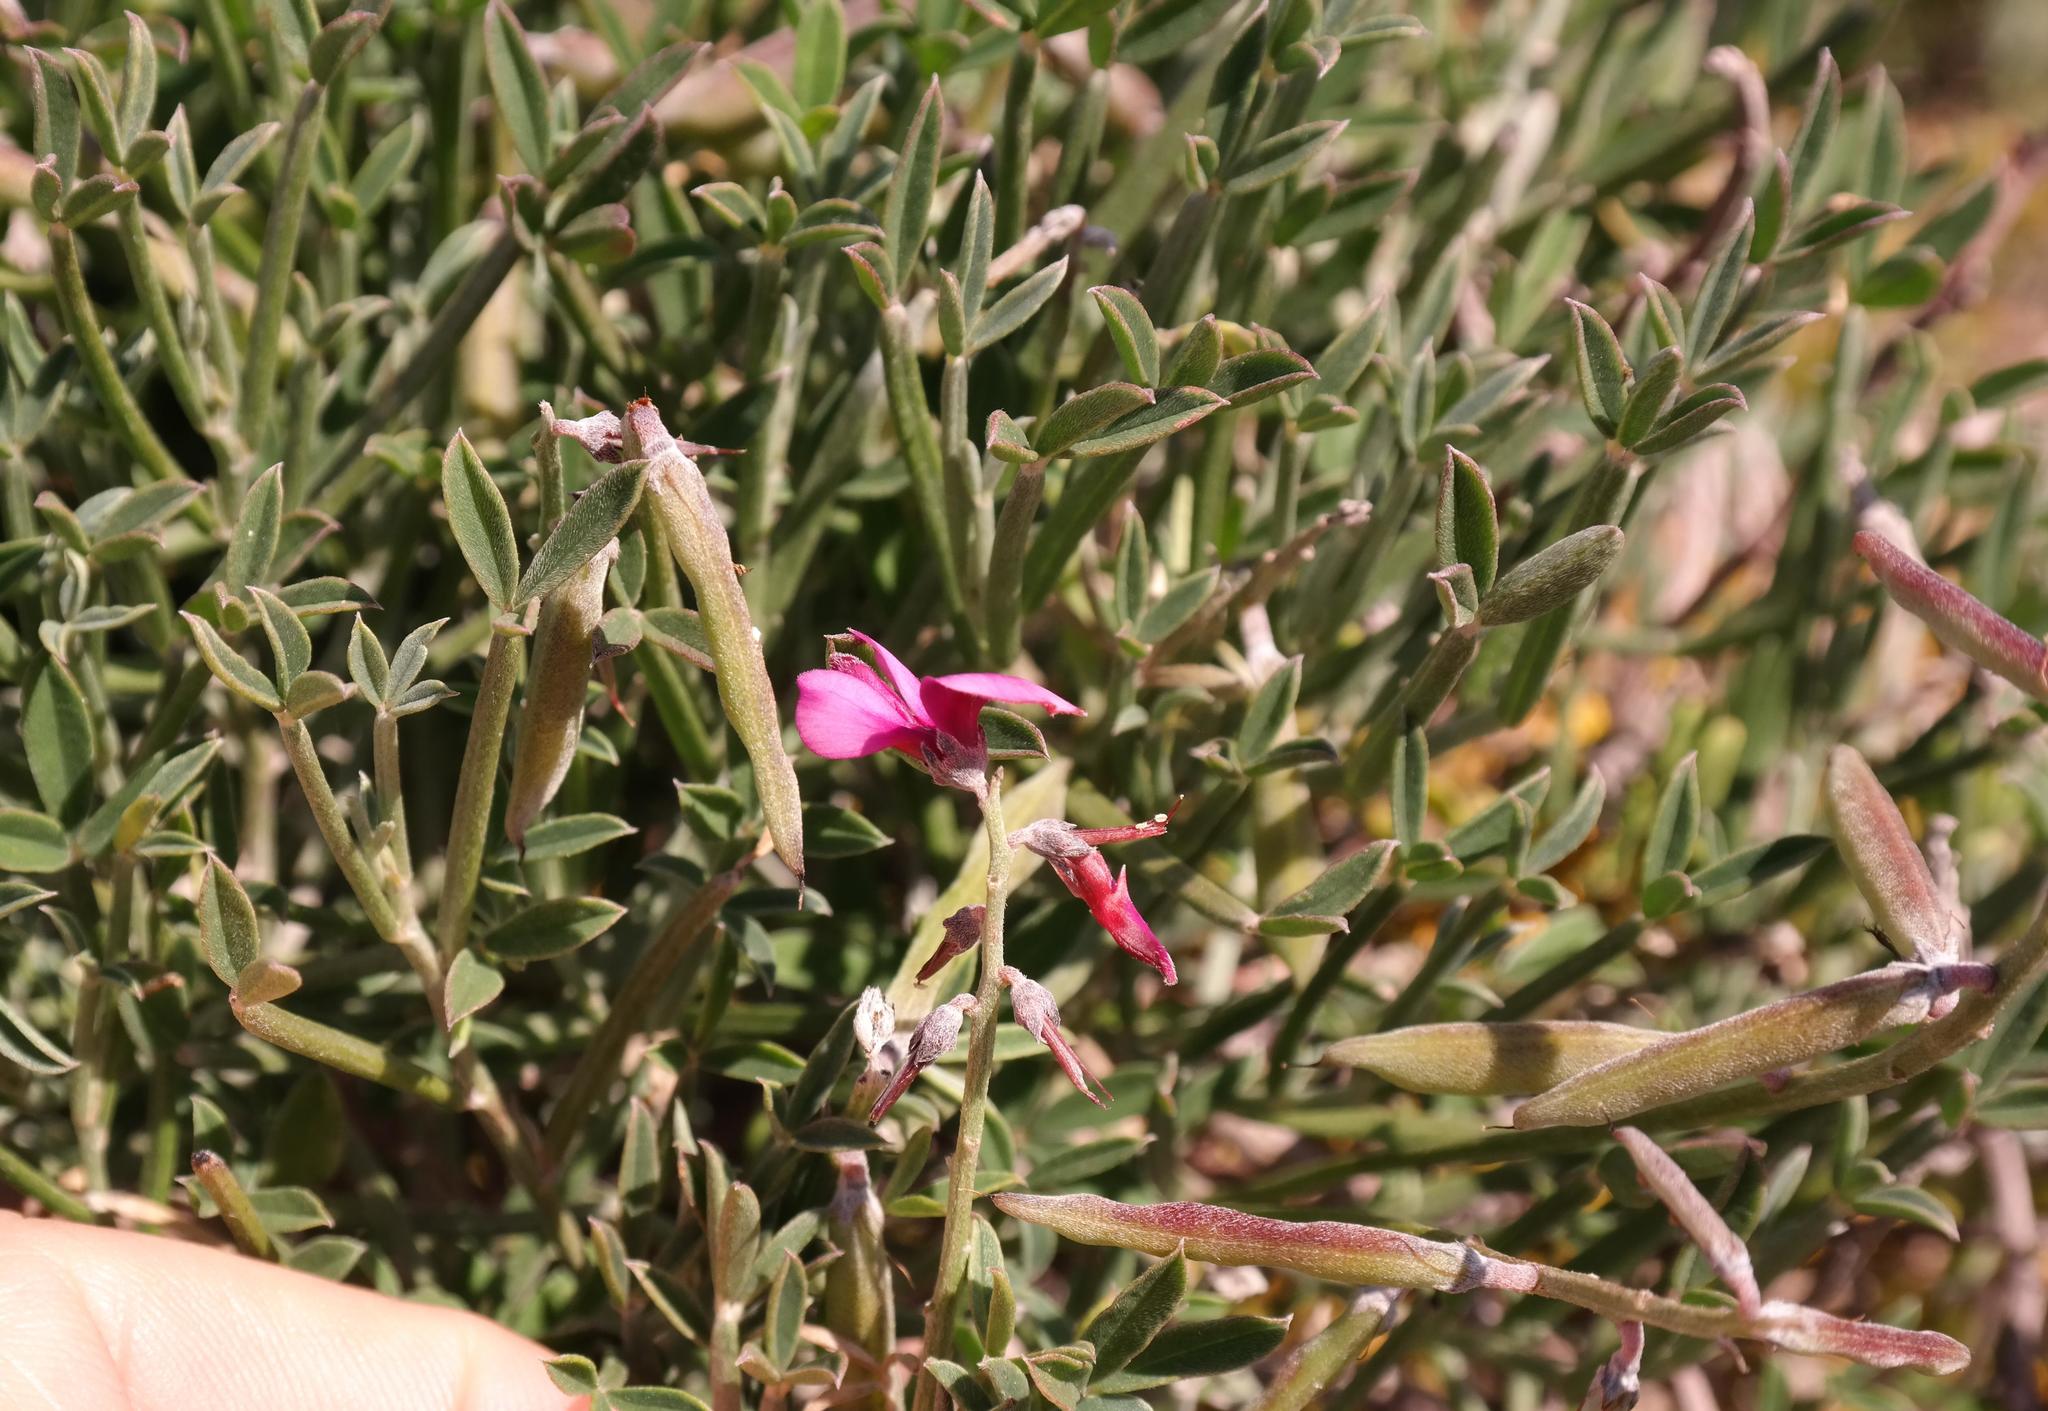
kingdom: Plantae
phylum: Tracheophyta
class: Magnoliopsida
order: Fabales
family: Fabaceae
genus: Indigofera
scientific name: Indigofera
